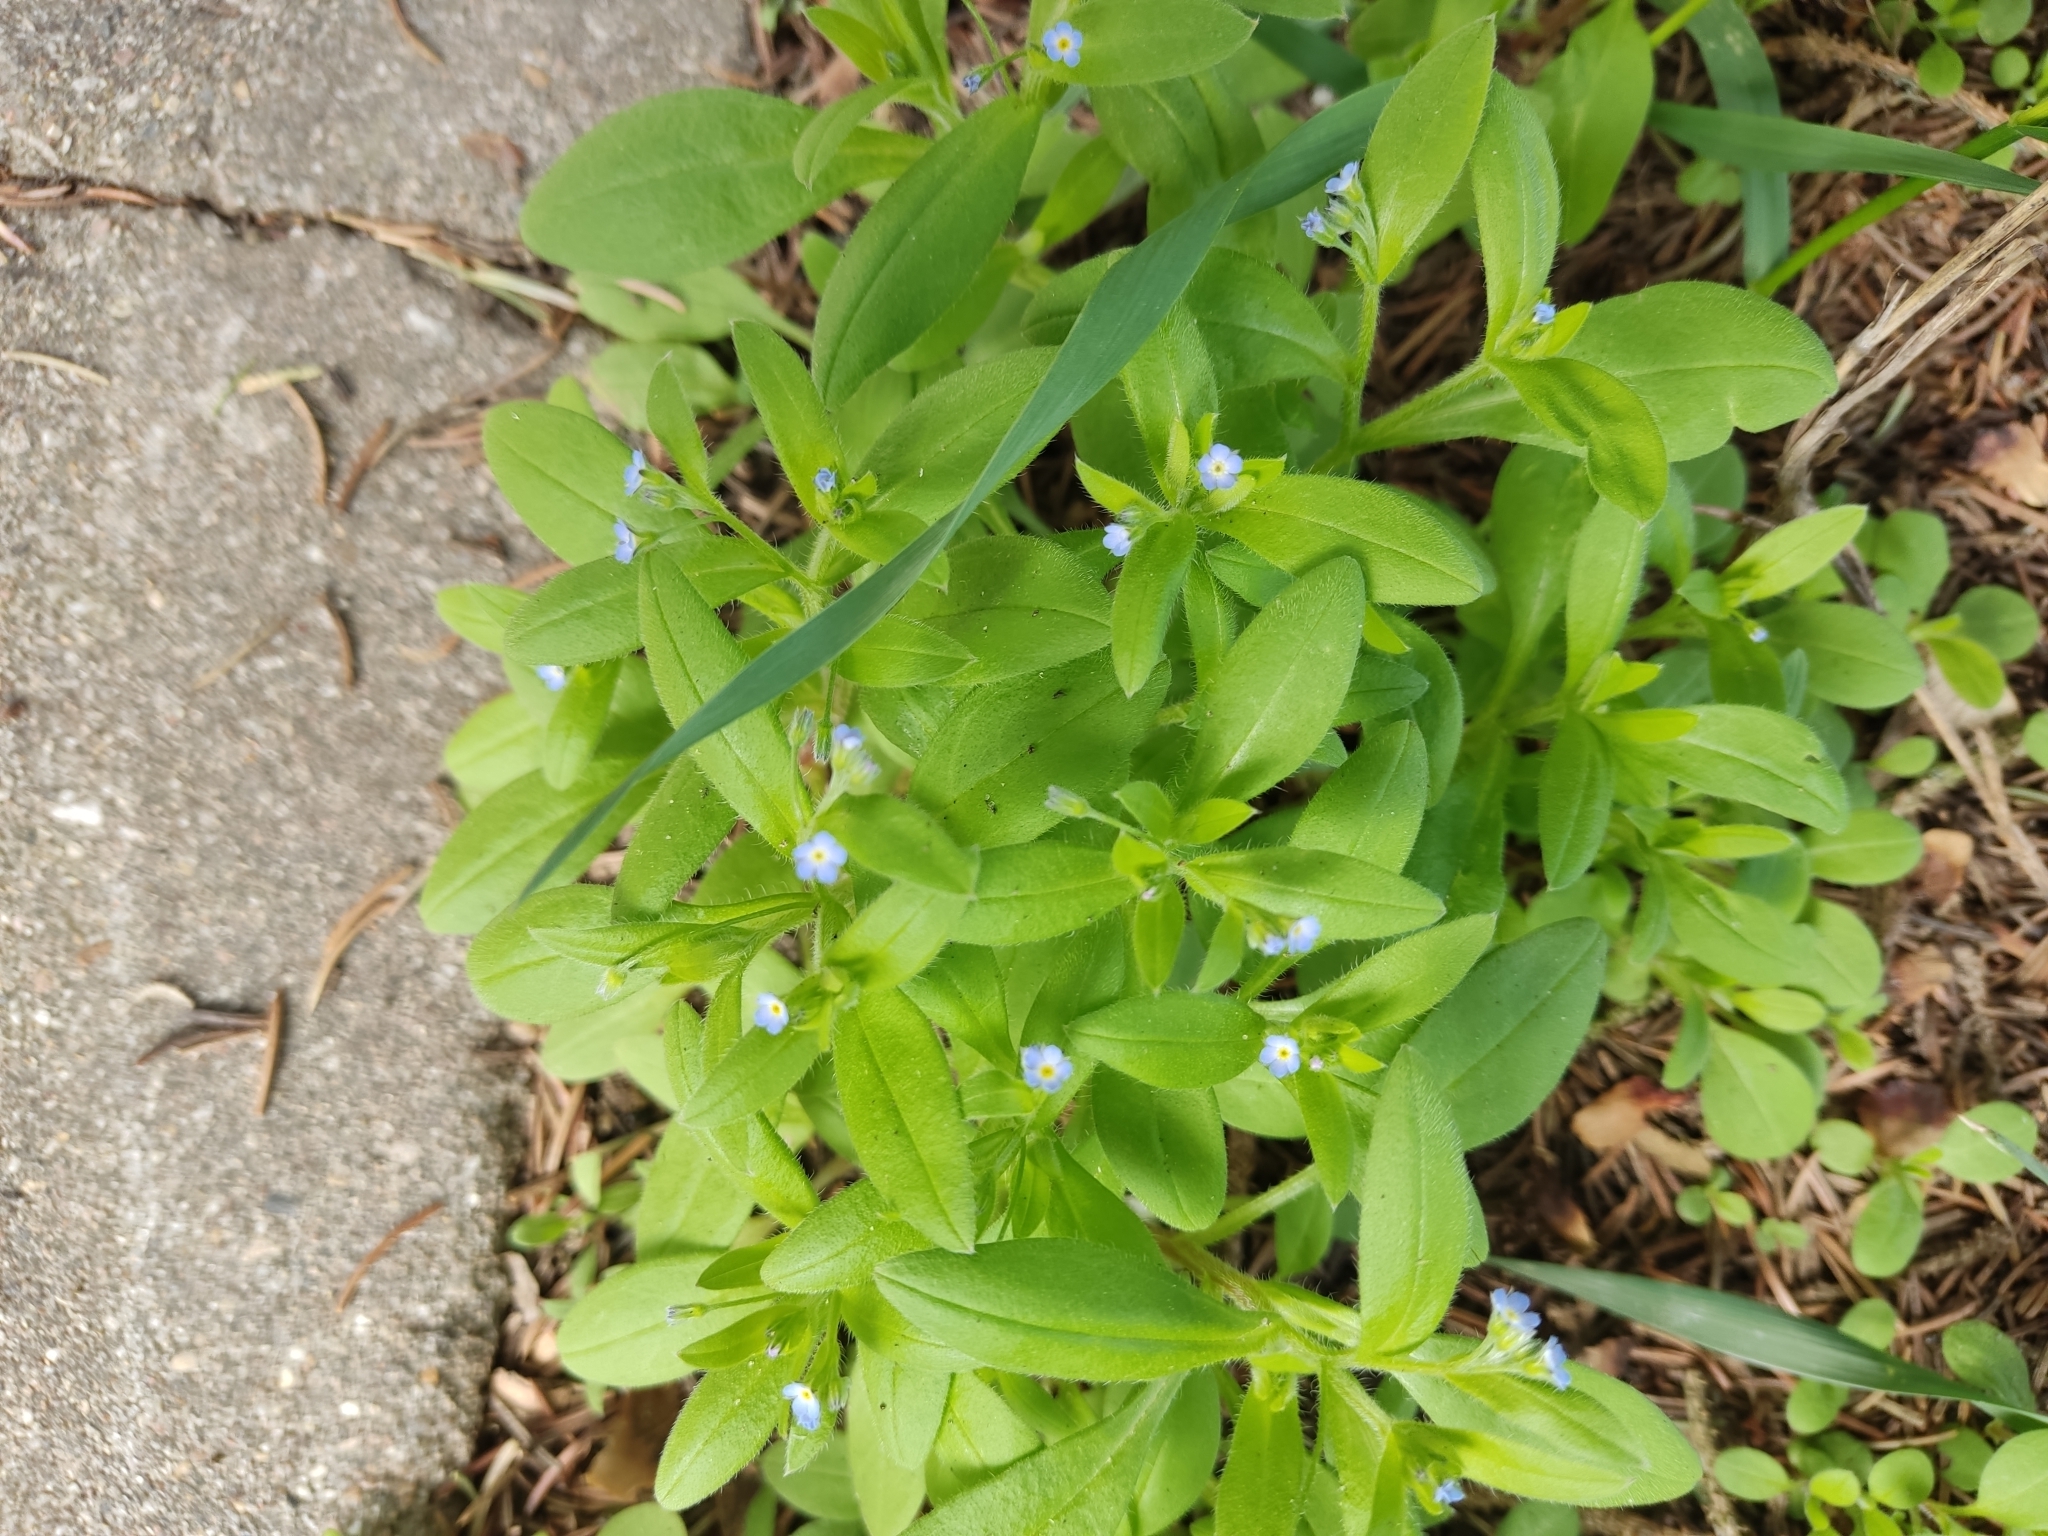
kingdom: Plantae
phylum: Tracheophyta
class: Magnoliopsida
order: Boraginales
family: Boraginaceae
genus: Myosotis
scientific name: Myosotis sparsiflora
